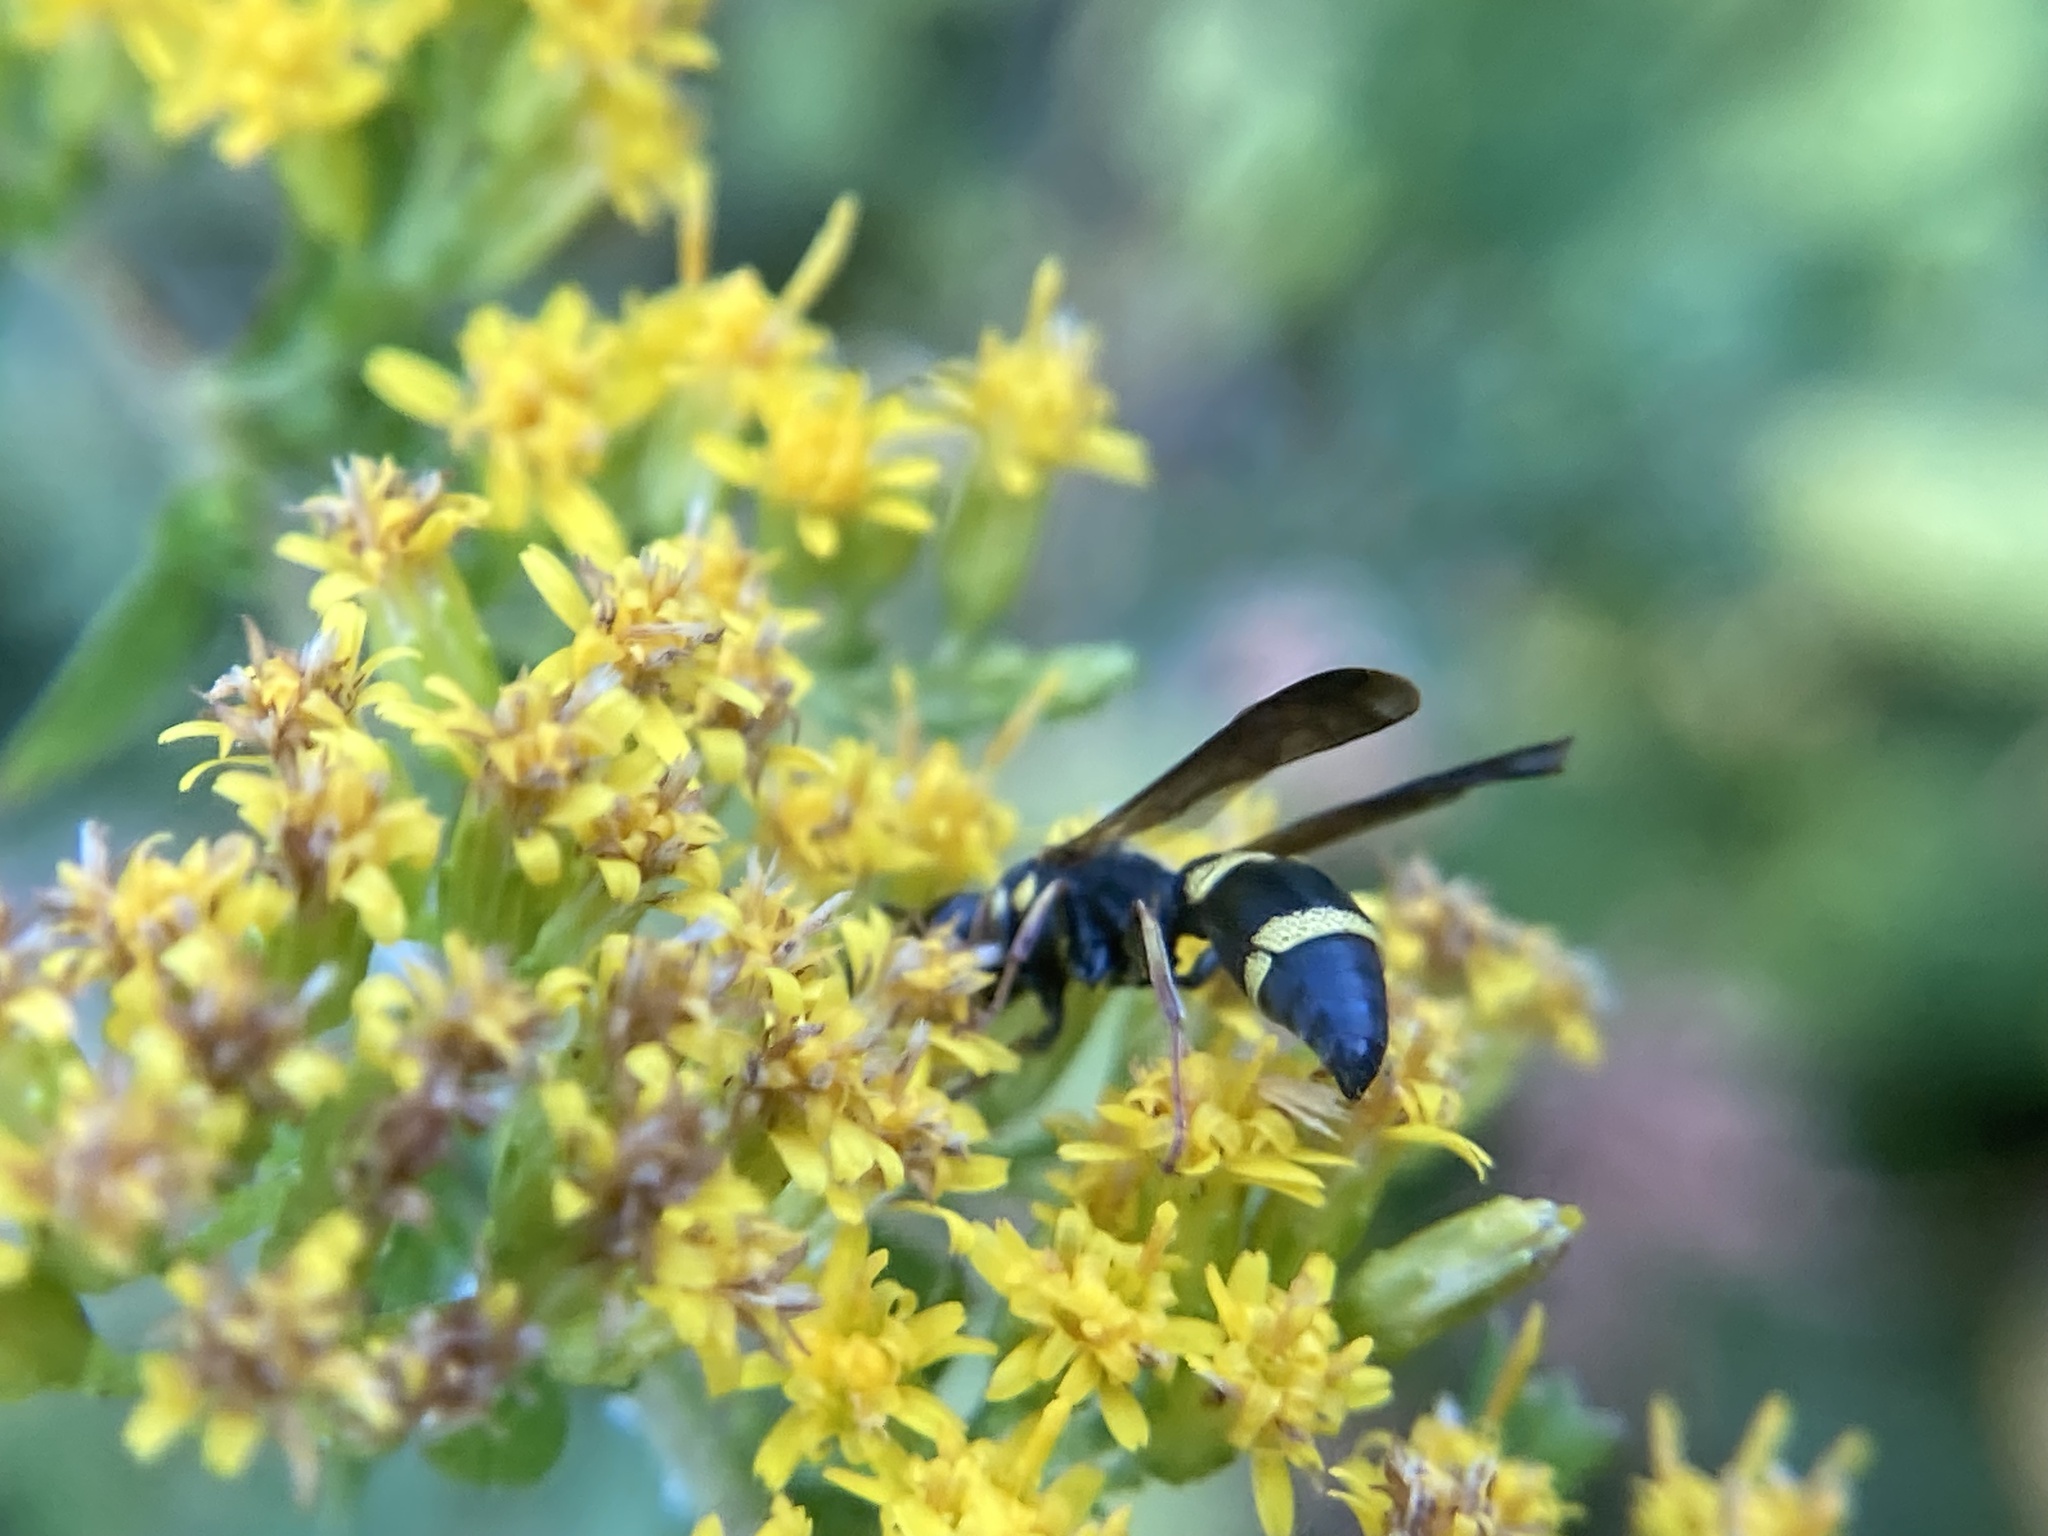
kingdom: Animalia
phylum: Arthropoda
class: Insecta
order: Hymenoptera
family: Eumenidae
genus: Parancistrocerus
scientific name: Parancistrocerus perennis
